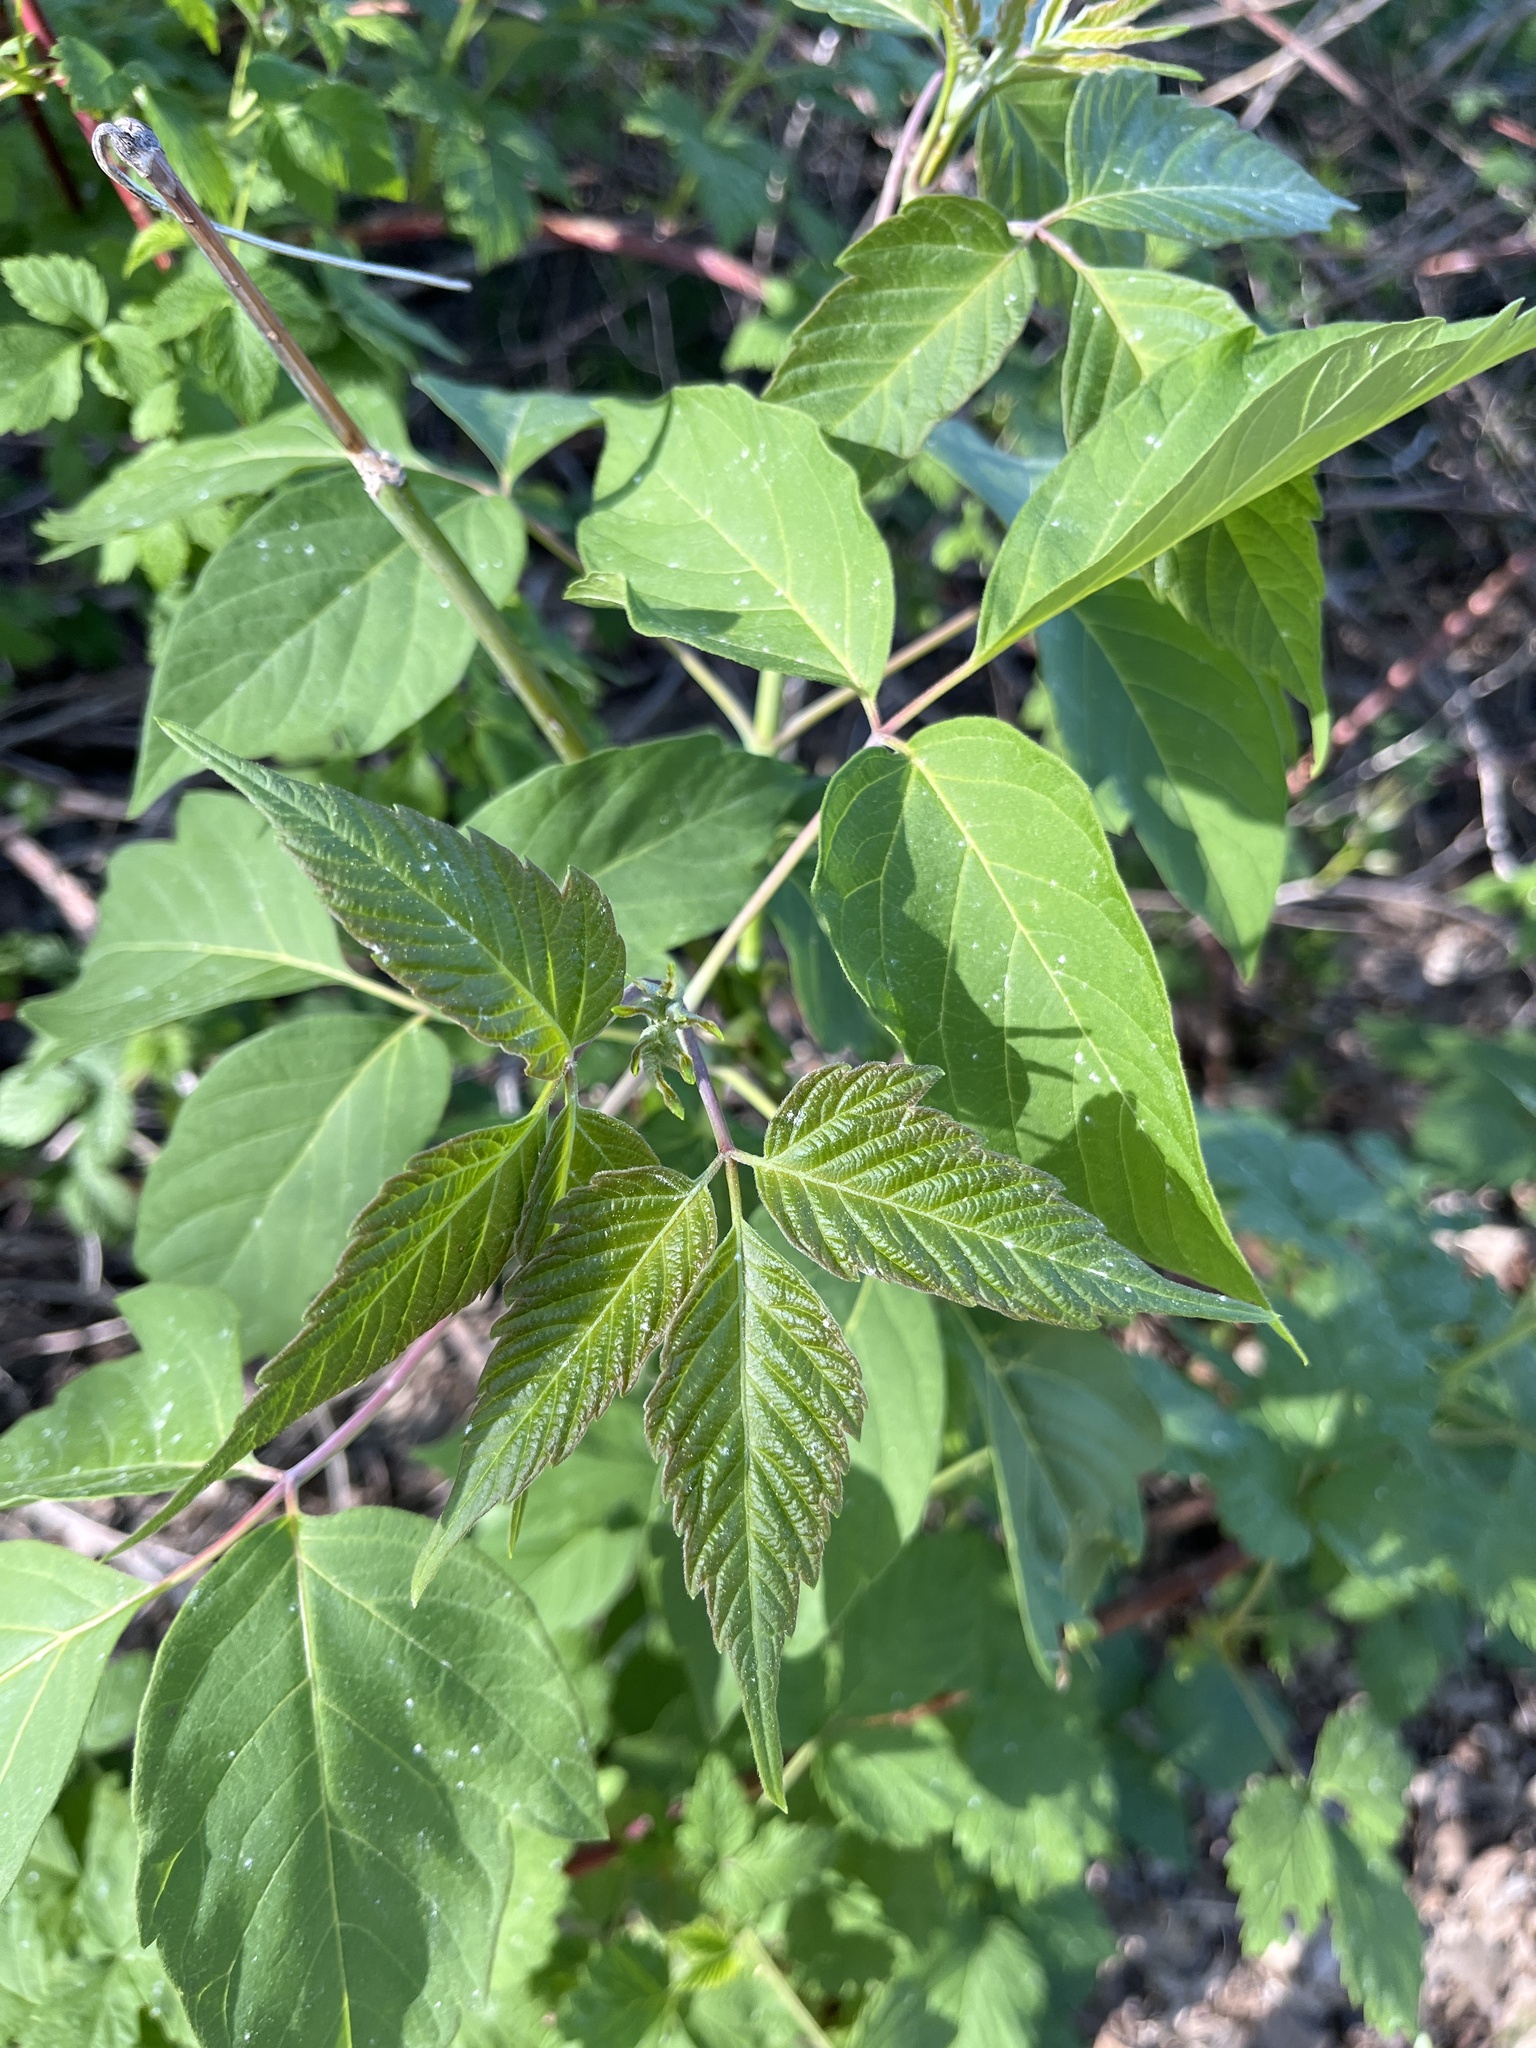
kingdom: Plantae
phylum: Tracheophyta
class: Magnoliopsida
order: Sapindales
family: Sapindaceae
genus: Acer
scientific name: Acer negundo
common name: Ashleaf maple
